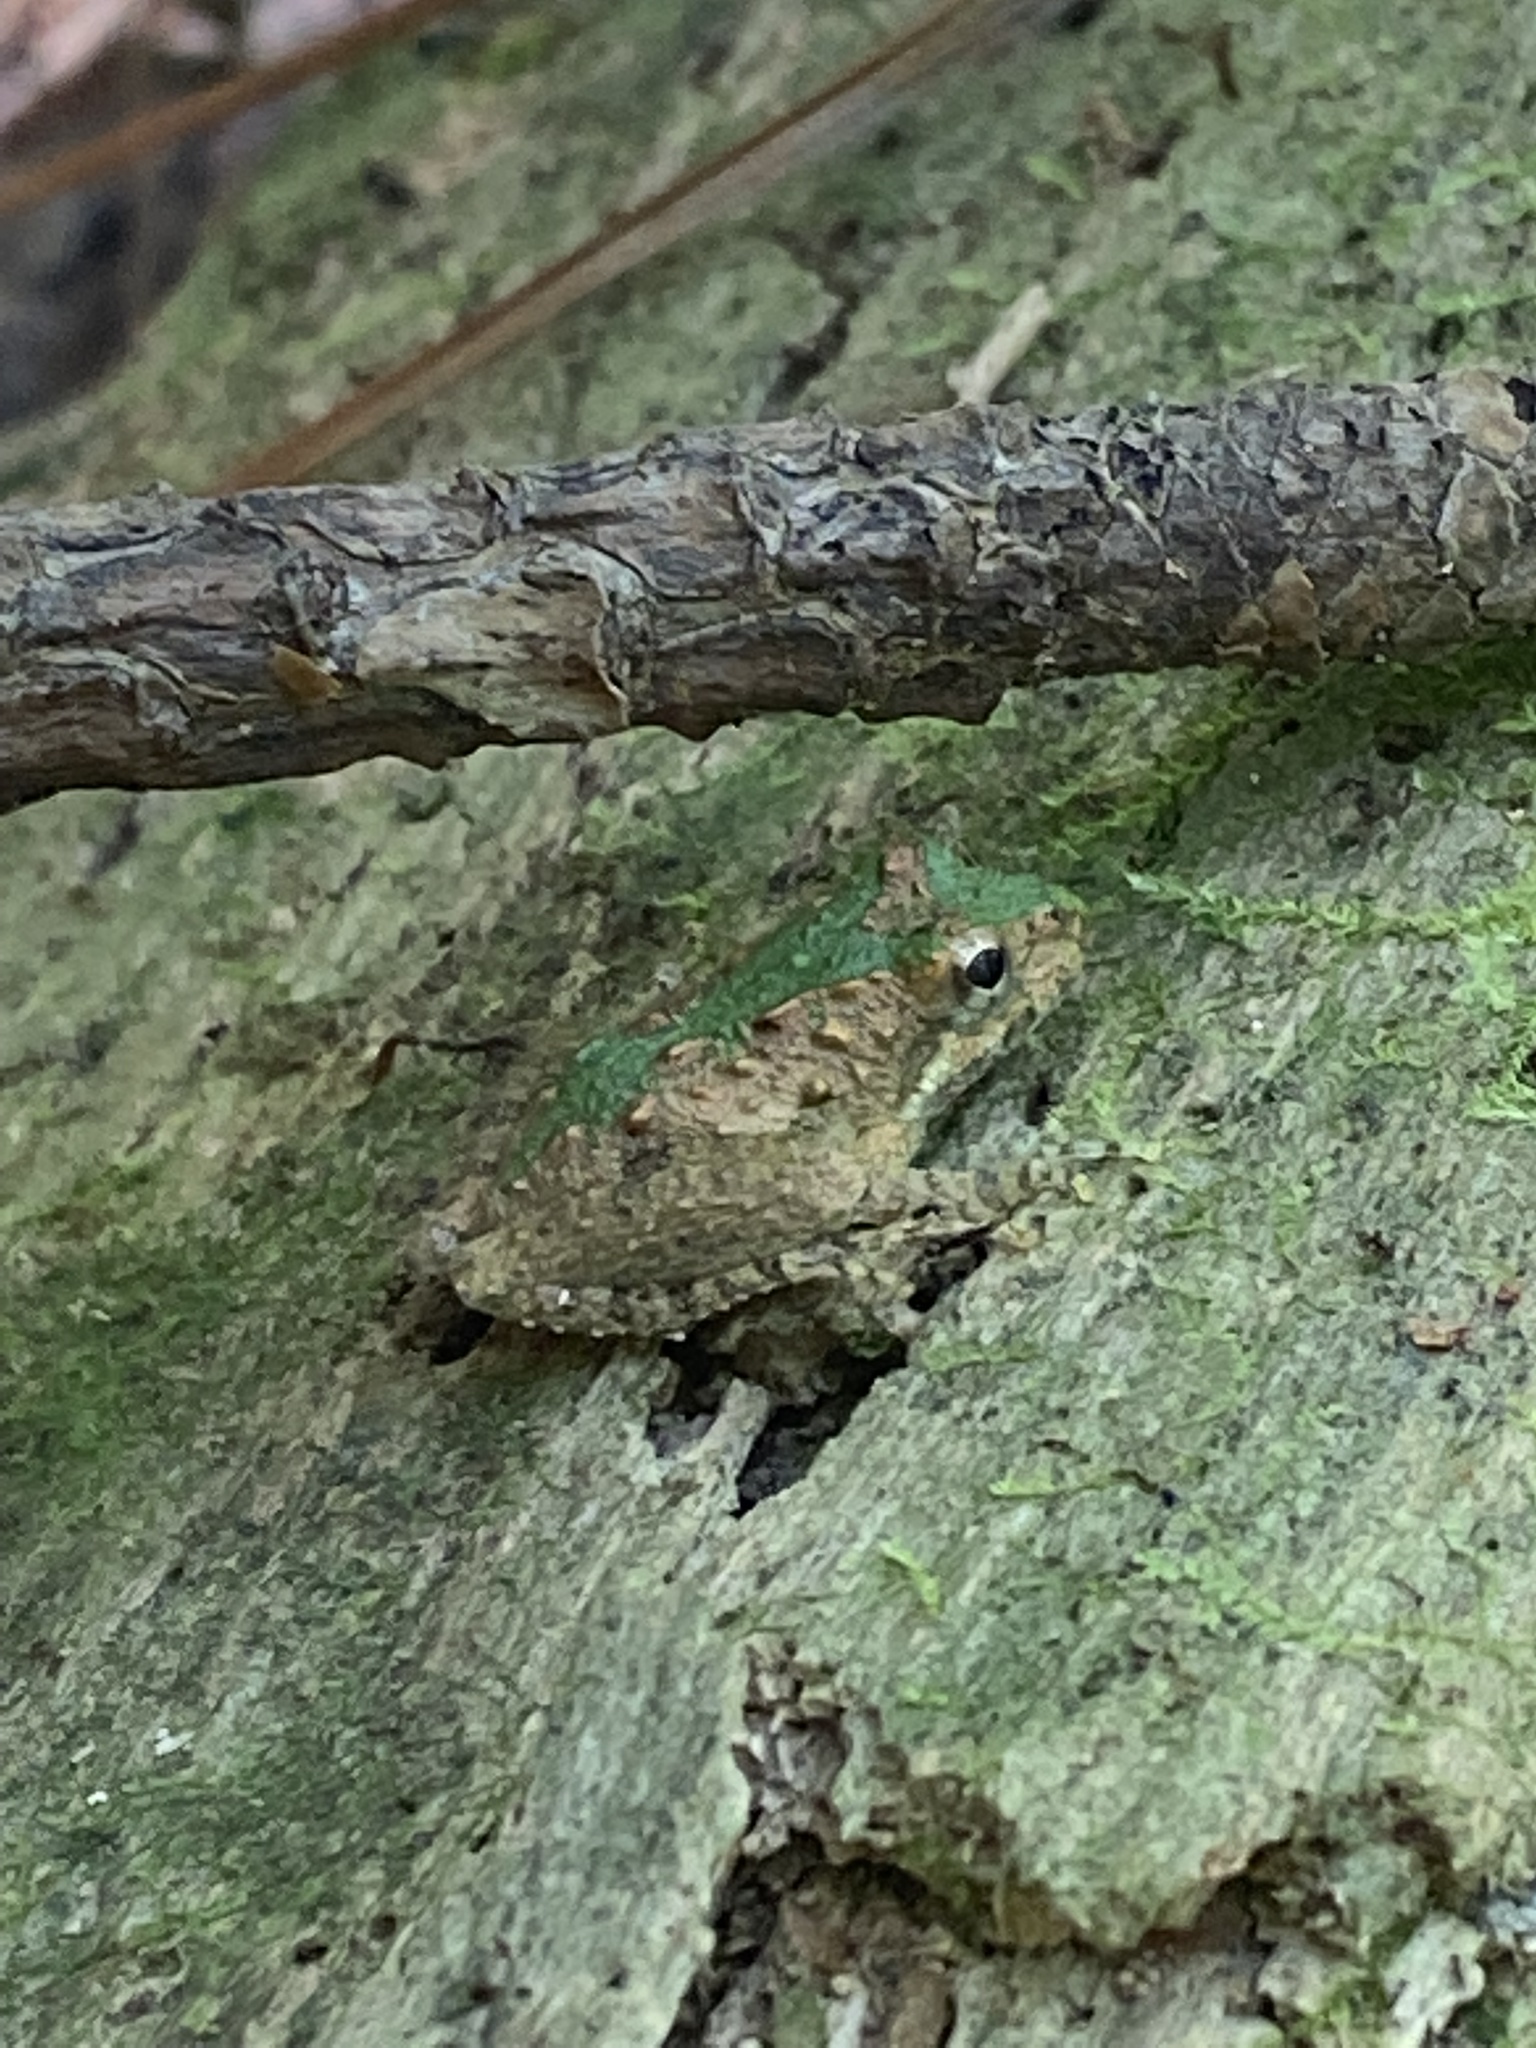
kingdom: Animalia
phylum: Chordata
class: Amphibia
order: Anura
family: Hylidae
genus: Acris
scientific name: Acris crepitans
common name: Northern cricket frog
